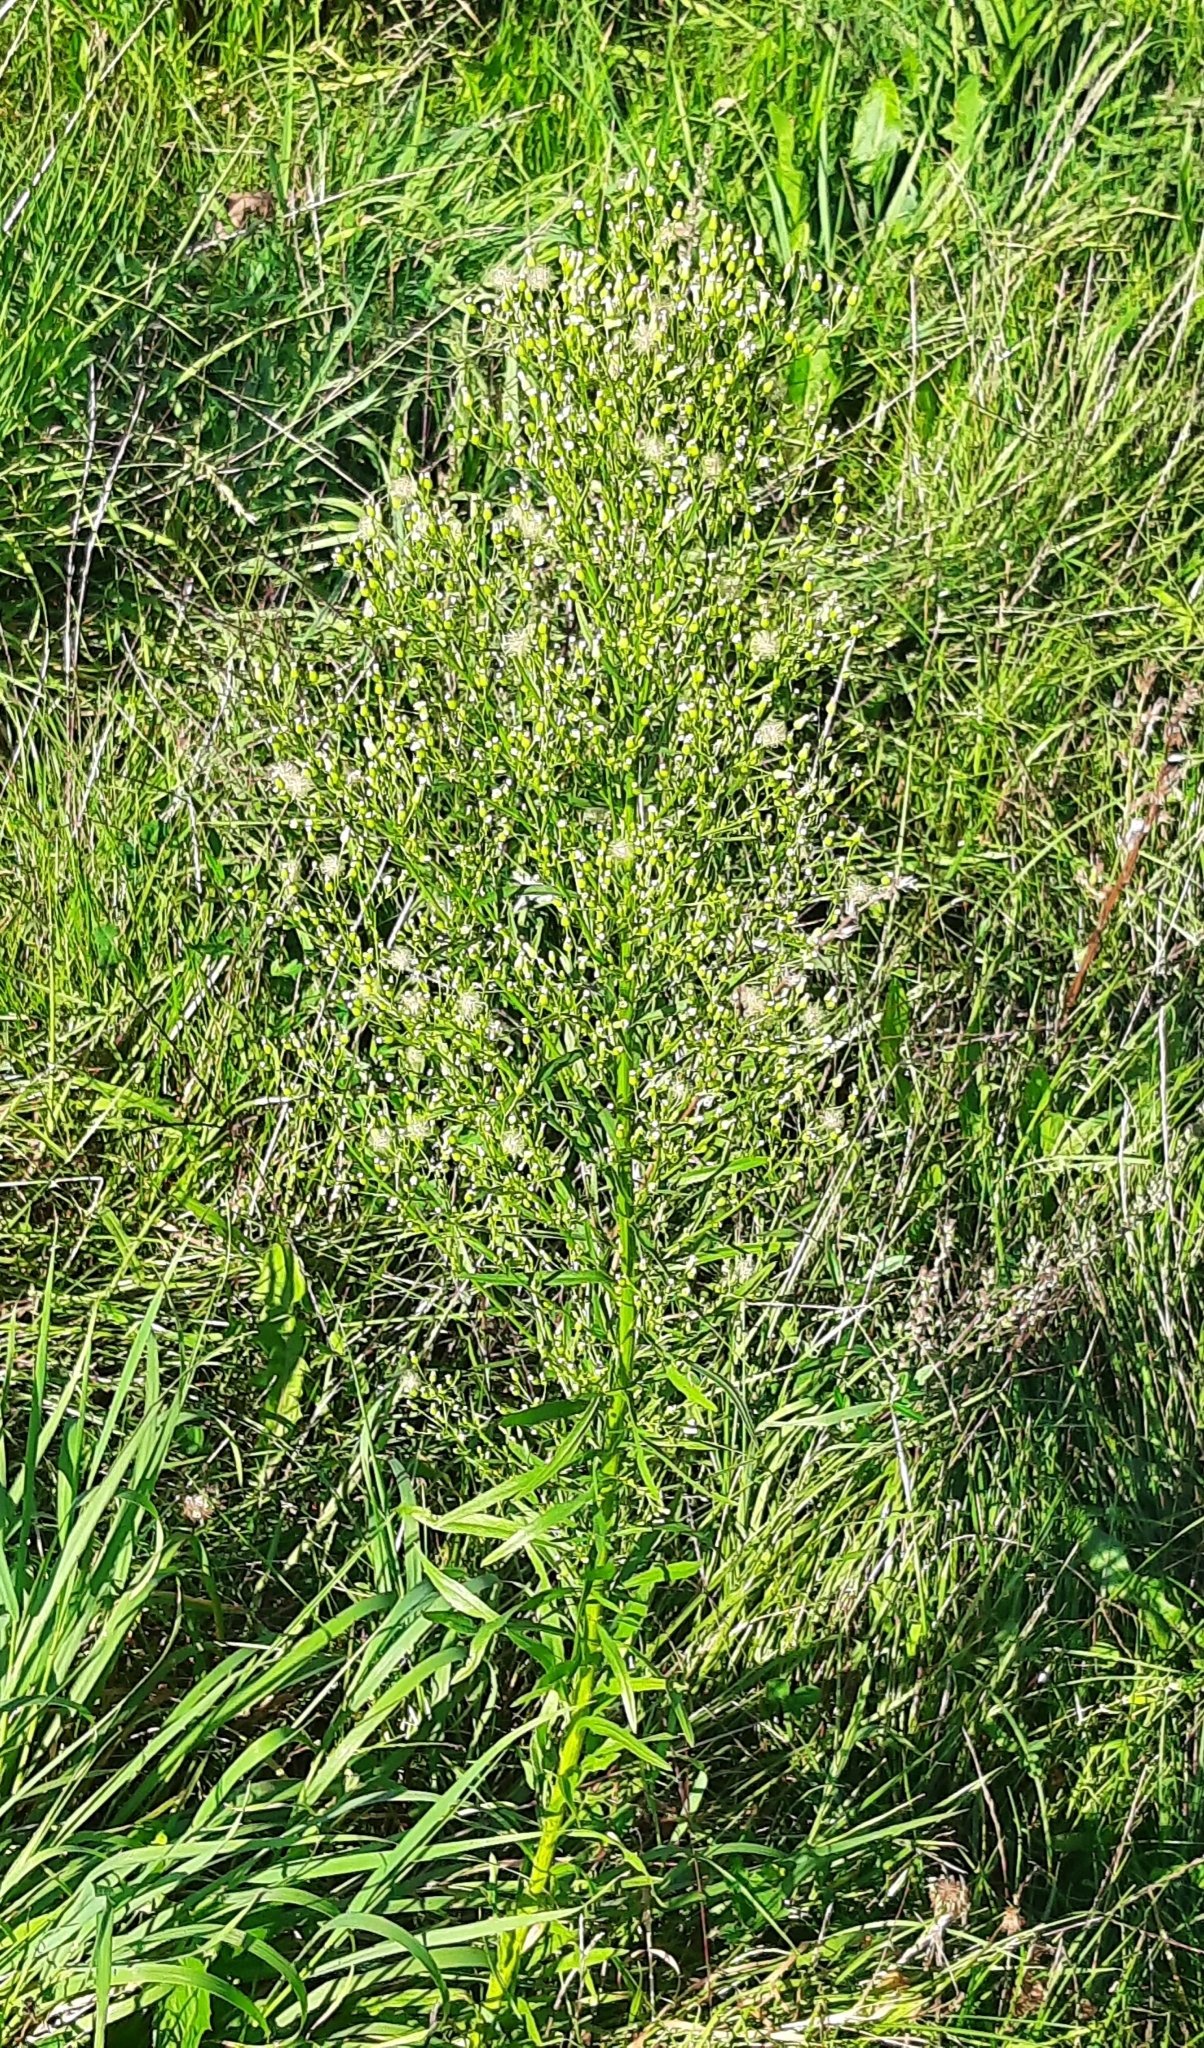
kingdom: Plantae
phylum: Tracheophyta
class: Magnoliopsida
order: Asterales
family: Asteraceae
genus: Erigeron
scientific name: Erigeron canadensis
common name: Canadian fleabane
